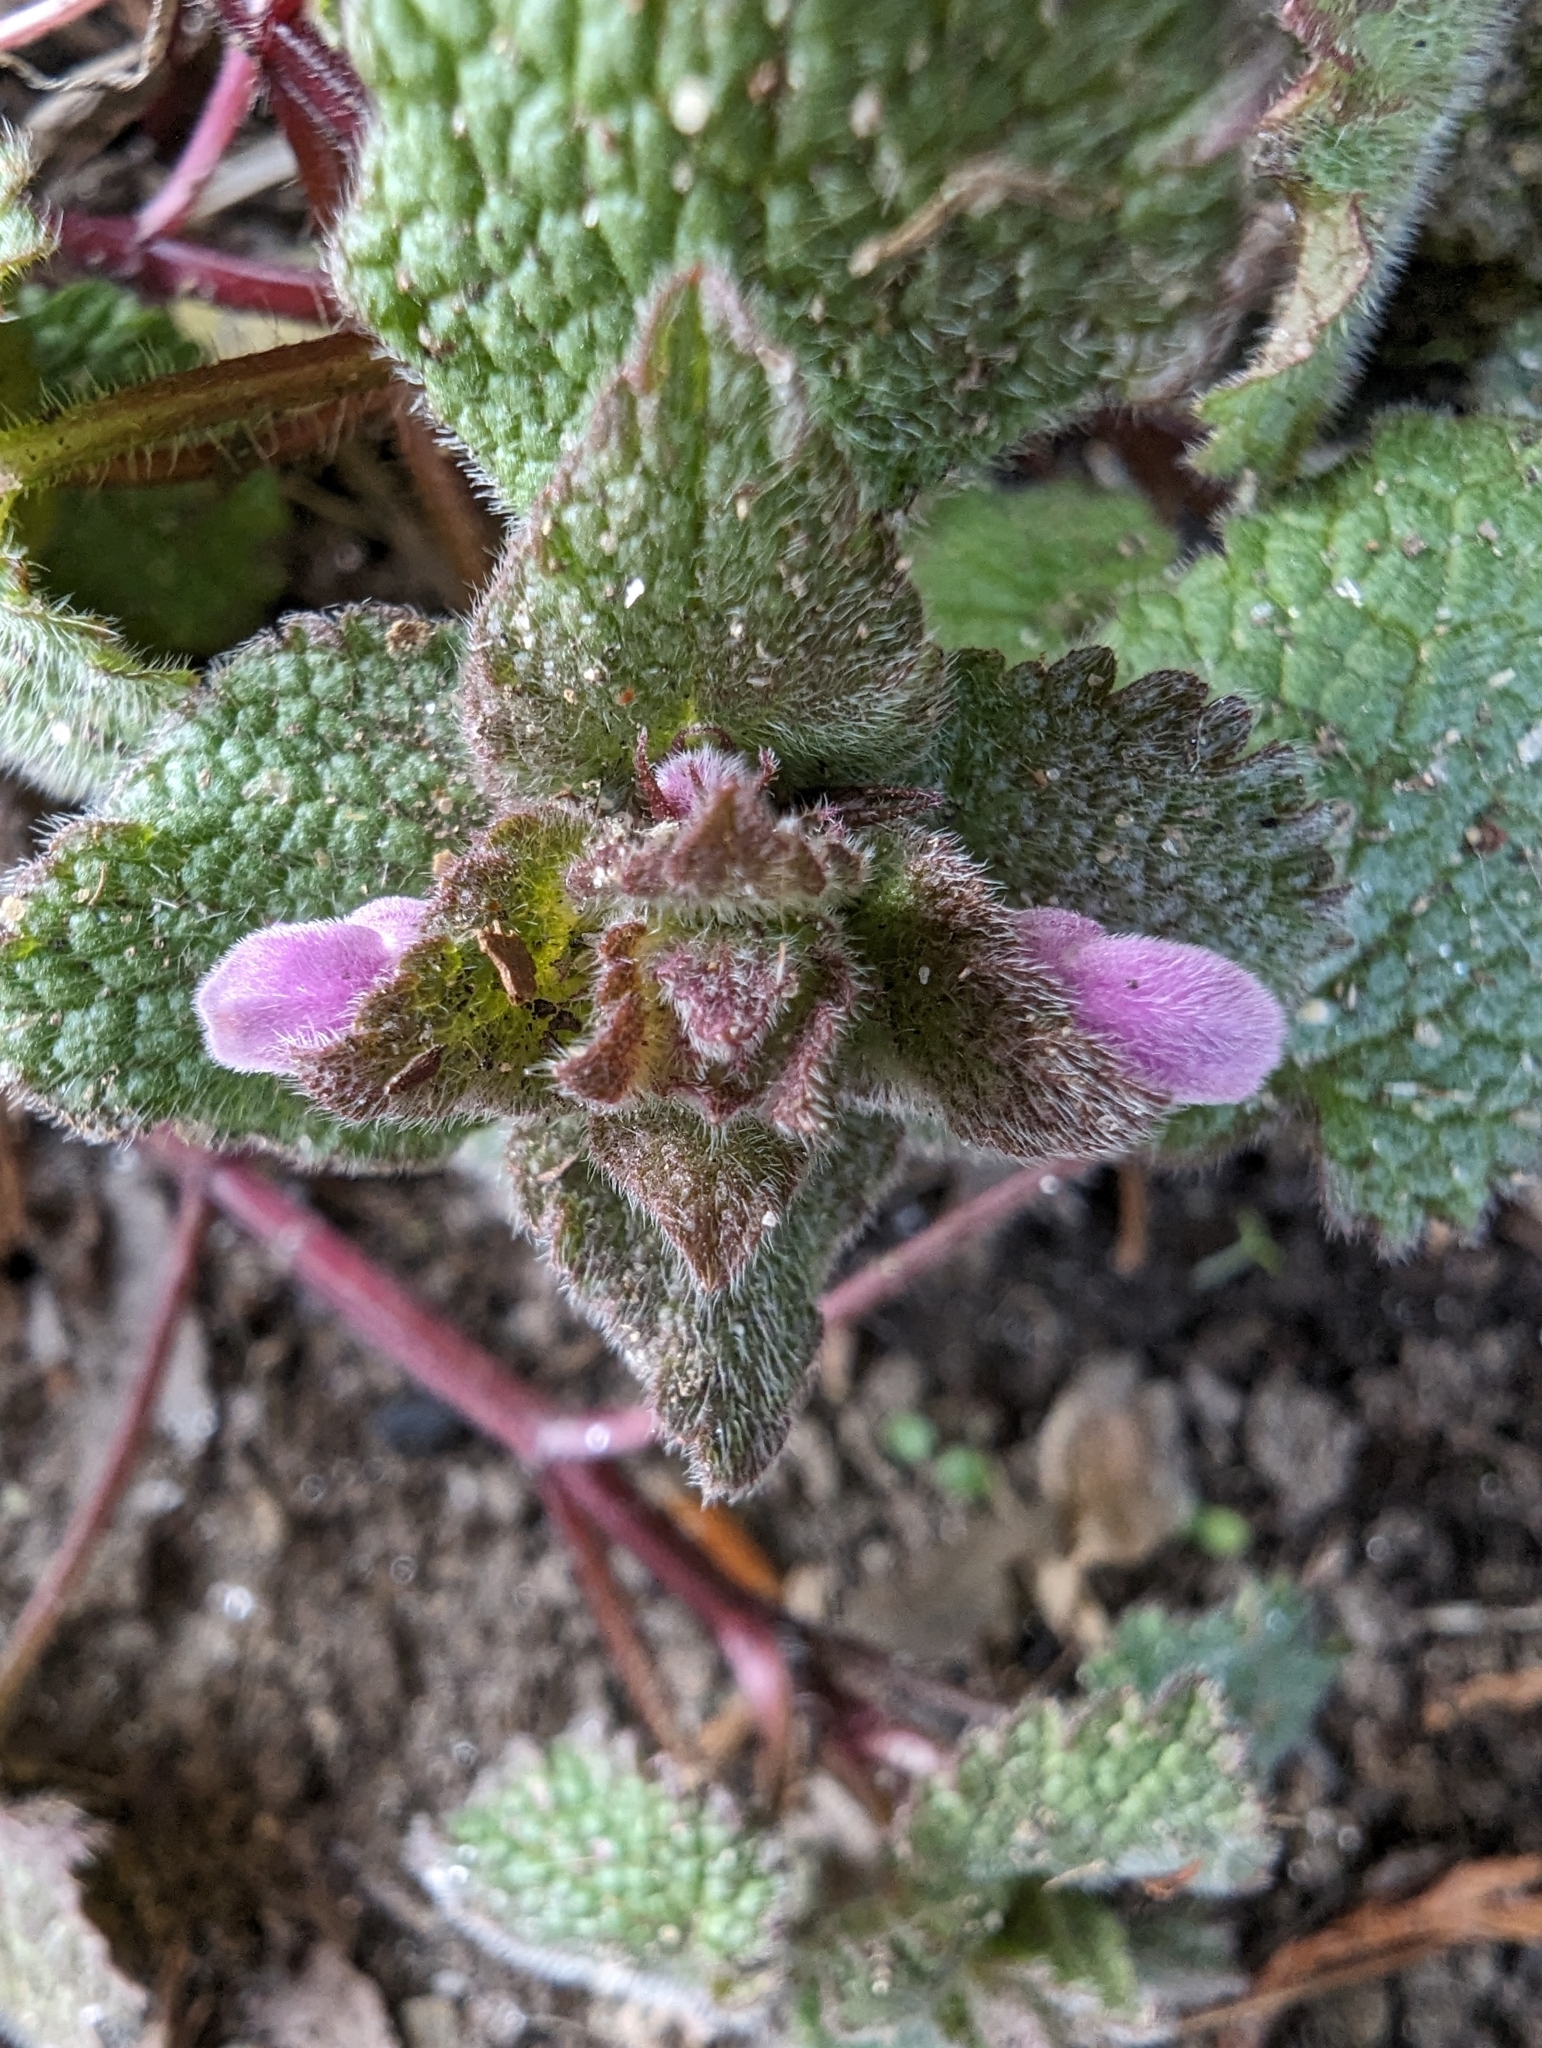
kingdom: Plantae
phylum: Tracheophyta
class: Magnoliopsida
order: Lamiales
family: Lamiaceae
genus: Lamium
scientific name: Lamium purpureum
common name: Red dead-nettle
